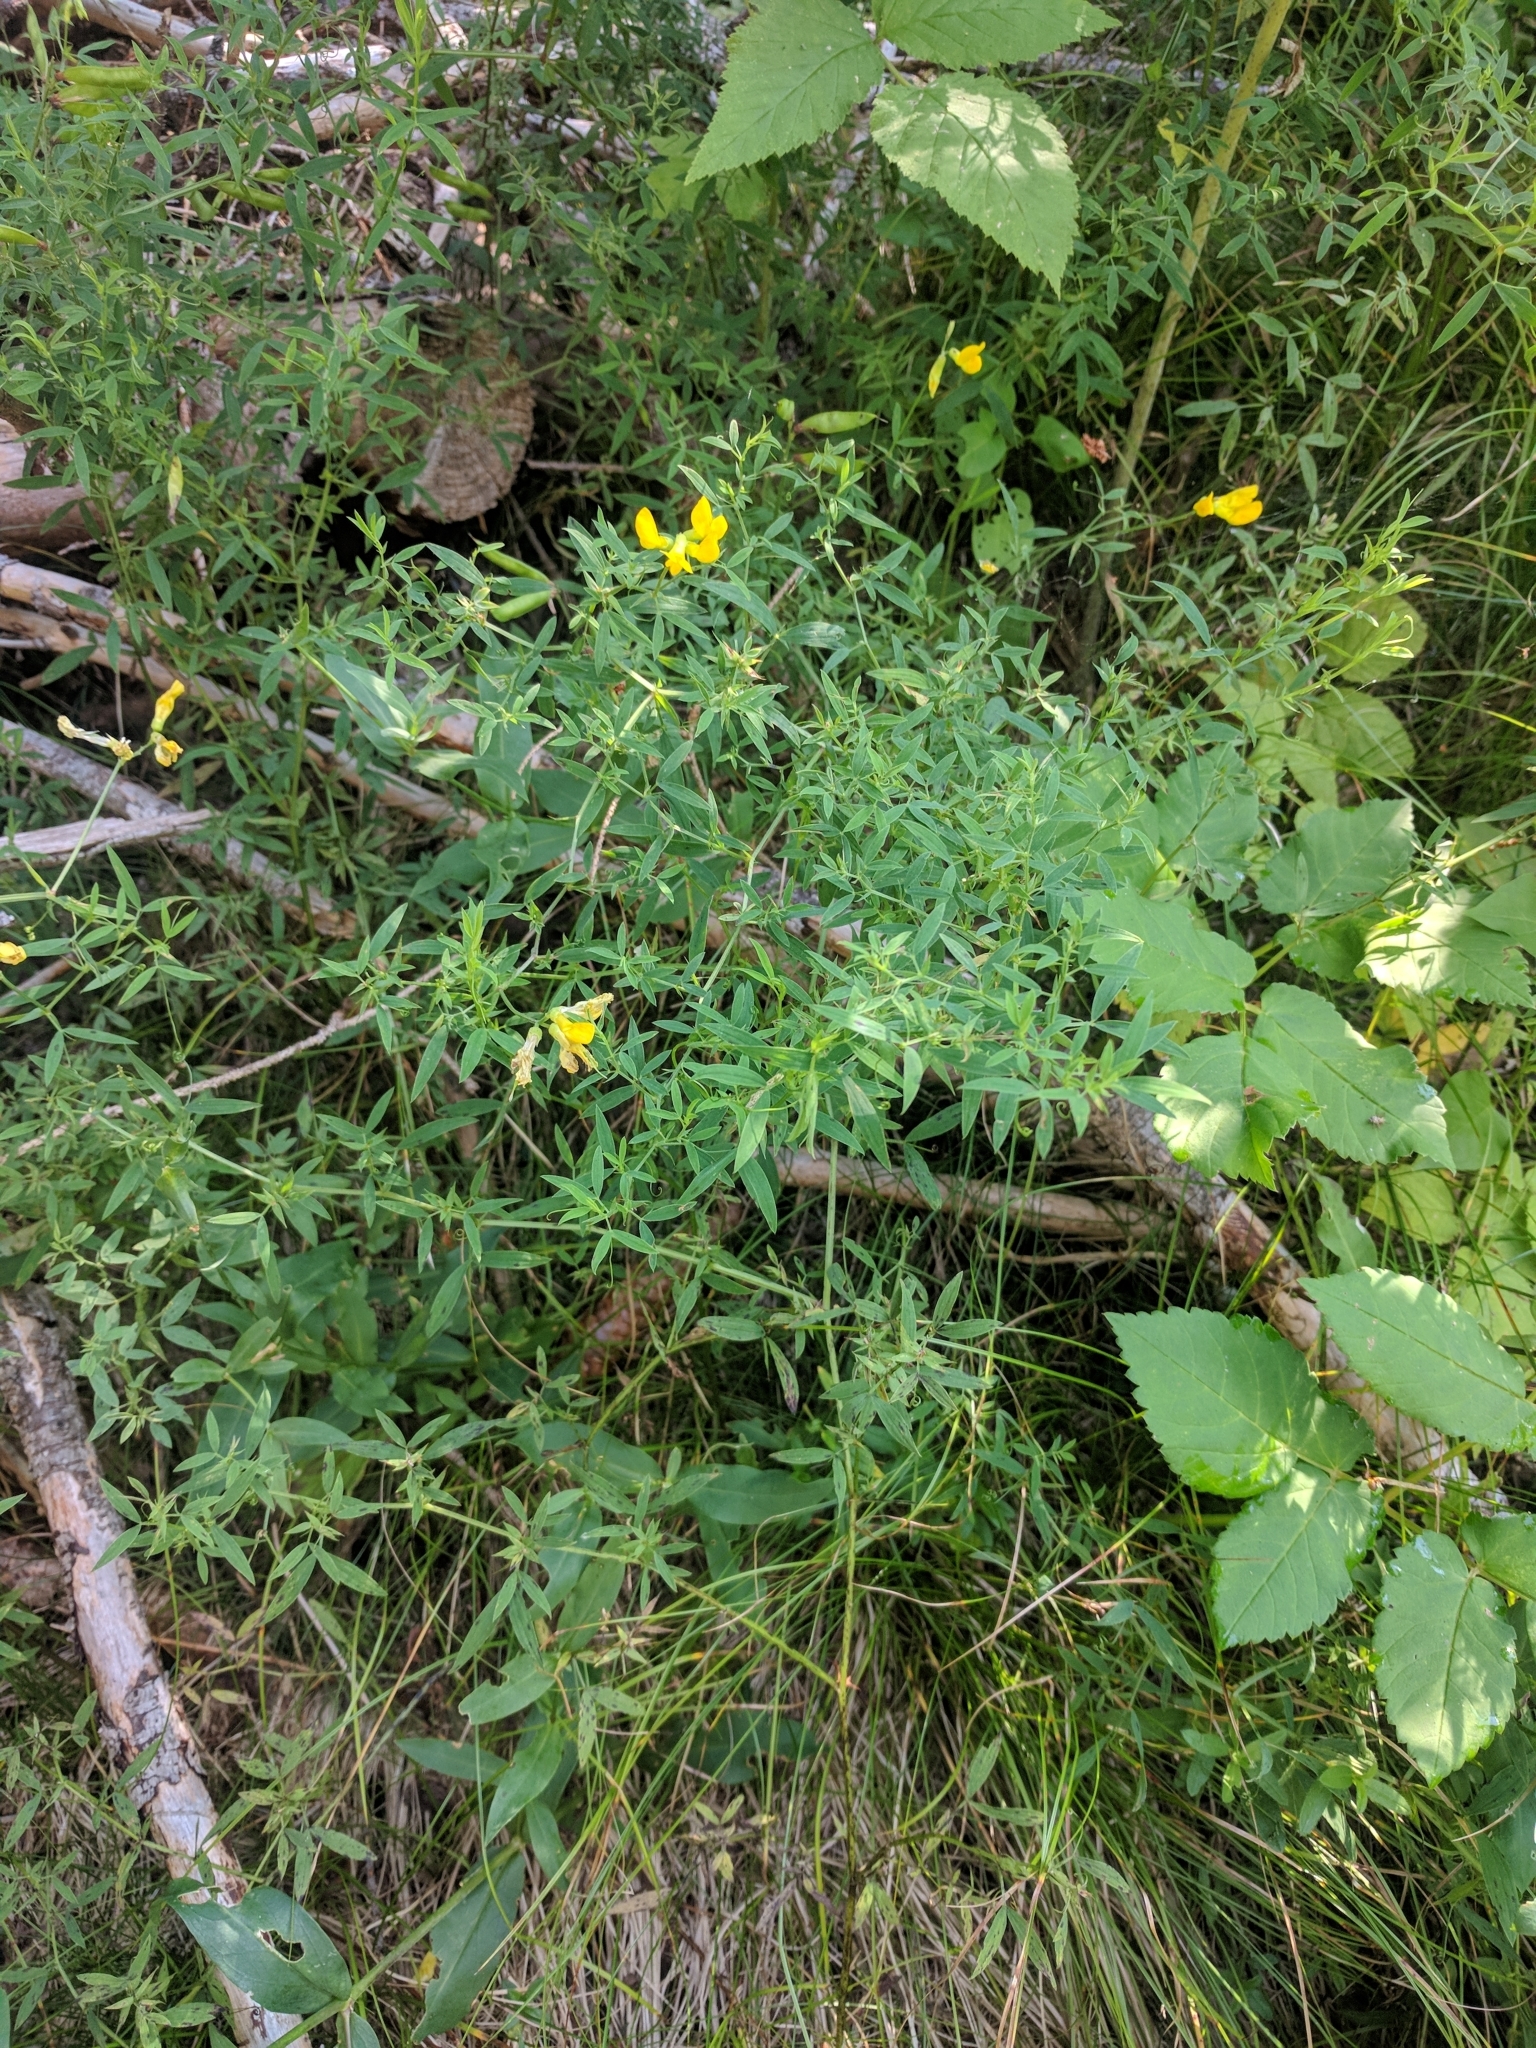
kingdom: Plantae
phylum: Tracheophyta
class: Magnoliopsida
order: Fabales
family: Fabaceae
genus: Lathyrus
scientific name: Lathyrus pratensis
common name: Meadow vetchling
